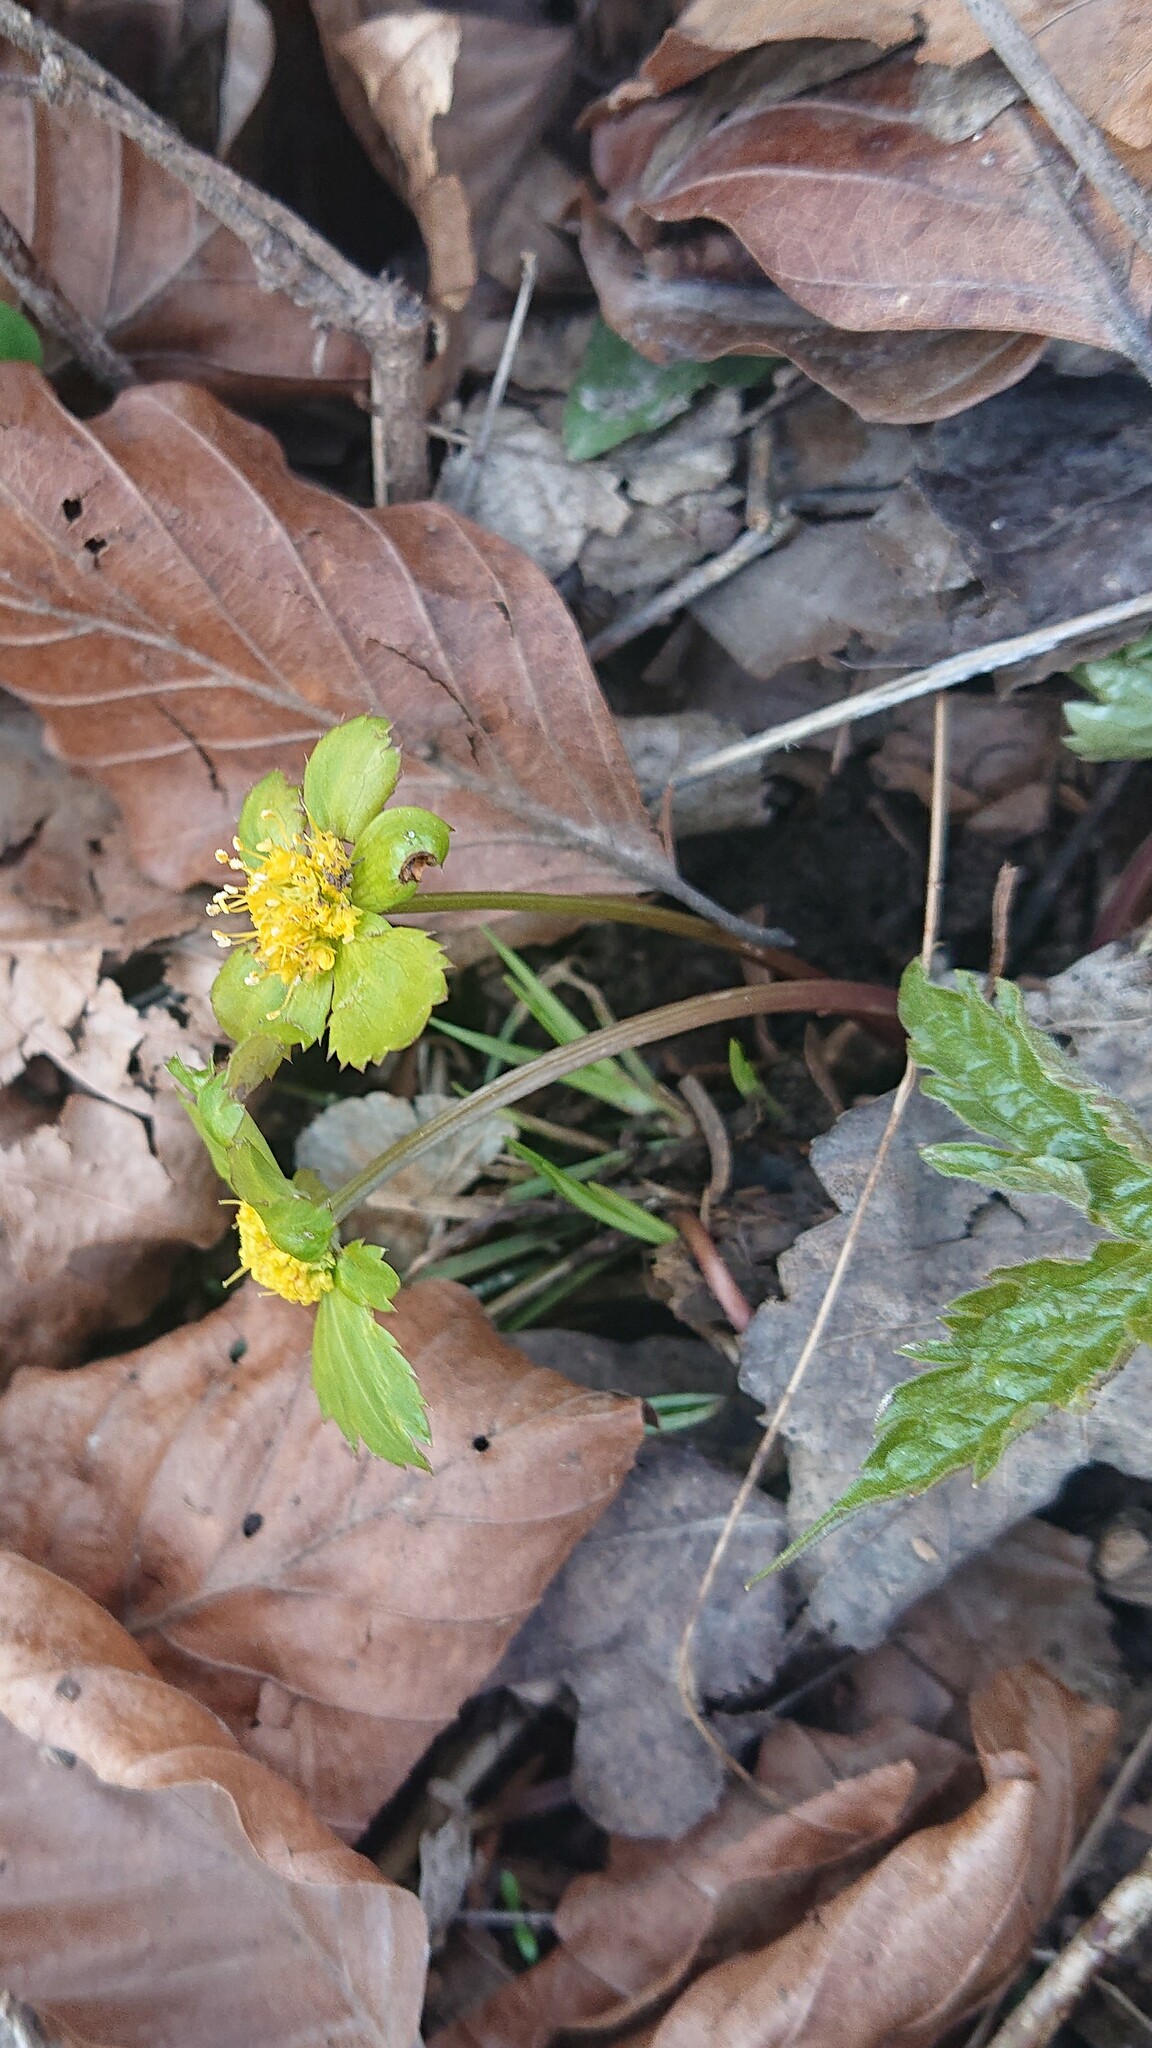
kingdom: Plantae
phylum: Tracheophyta
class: Magnoliopsida
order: Apiales
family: Apiaceae
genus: Sanicula
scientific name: Sanicula epipactis
